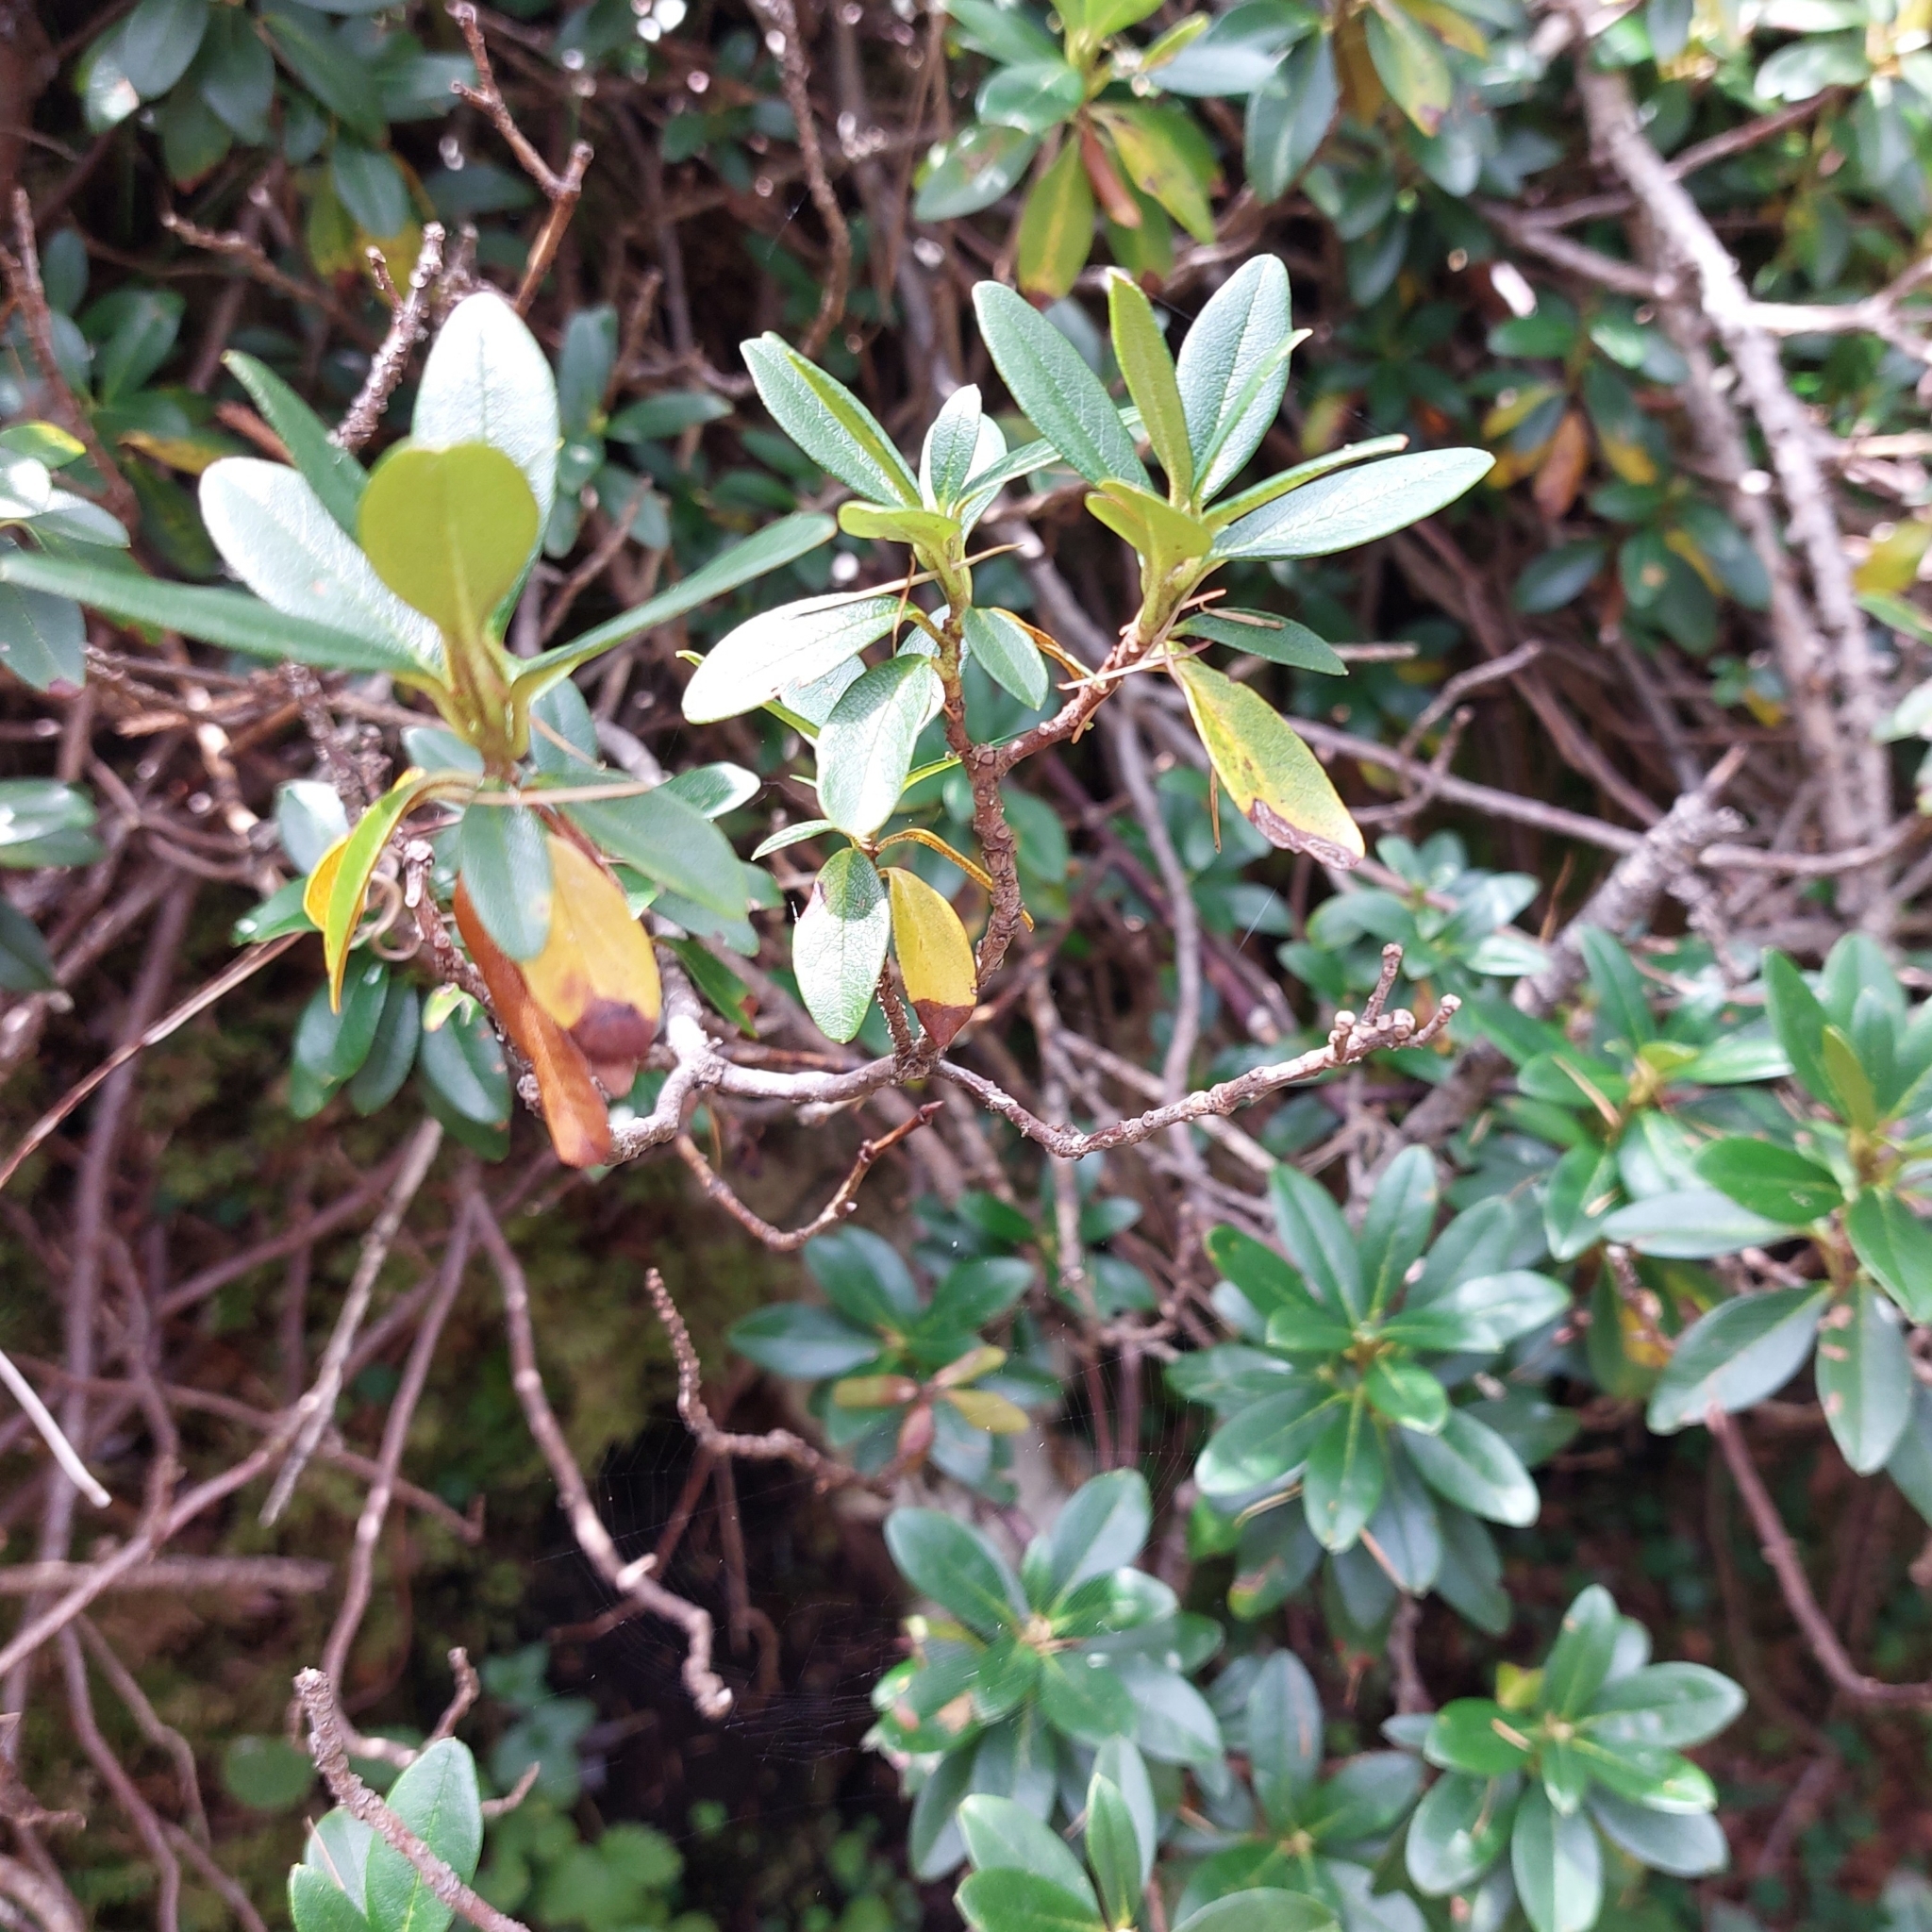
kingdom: Plantae
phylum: Tracheophyta
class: Magnoliopsida
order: Ericales
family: Ericaceae
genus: Rhododendron
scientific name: Rhododendron ferrugineum
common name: Alpenrose
